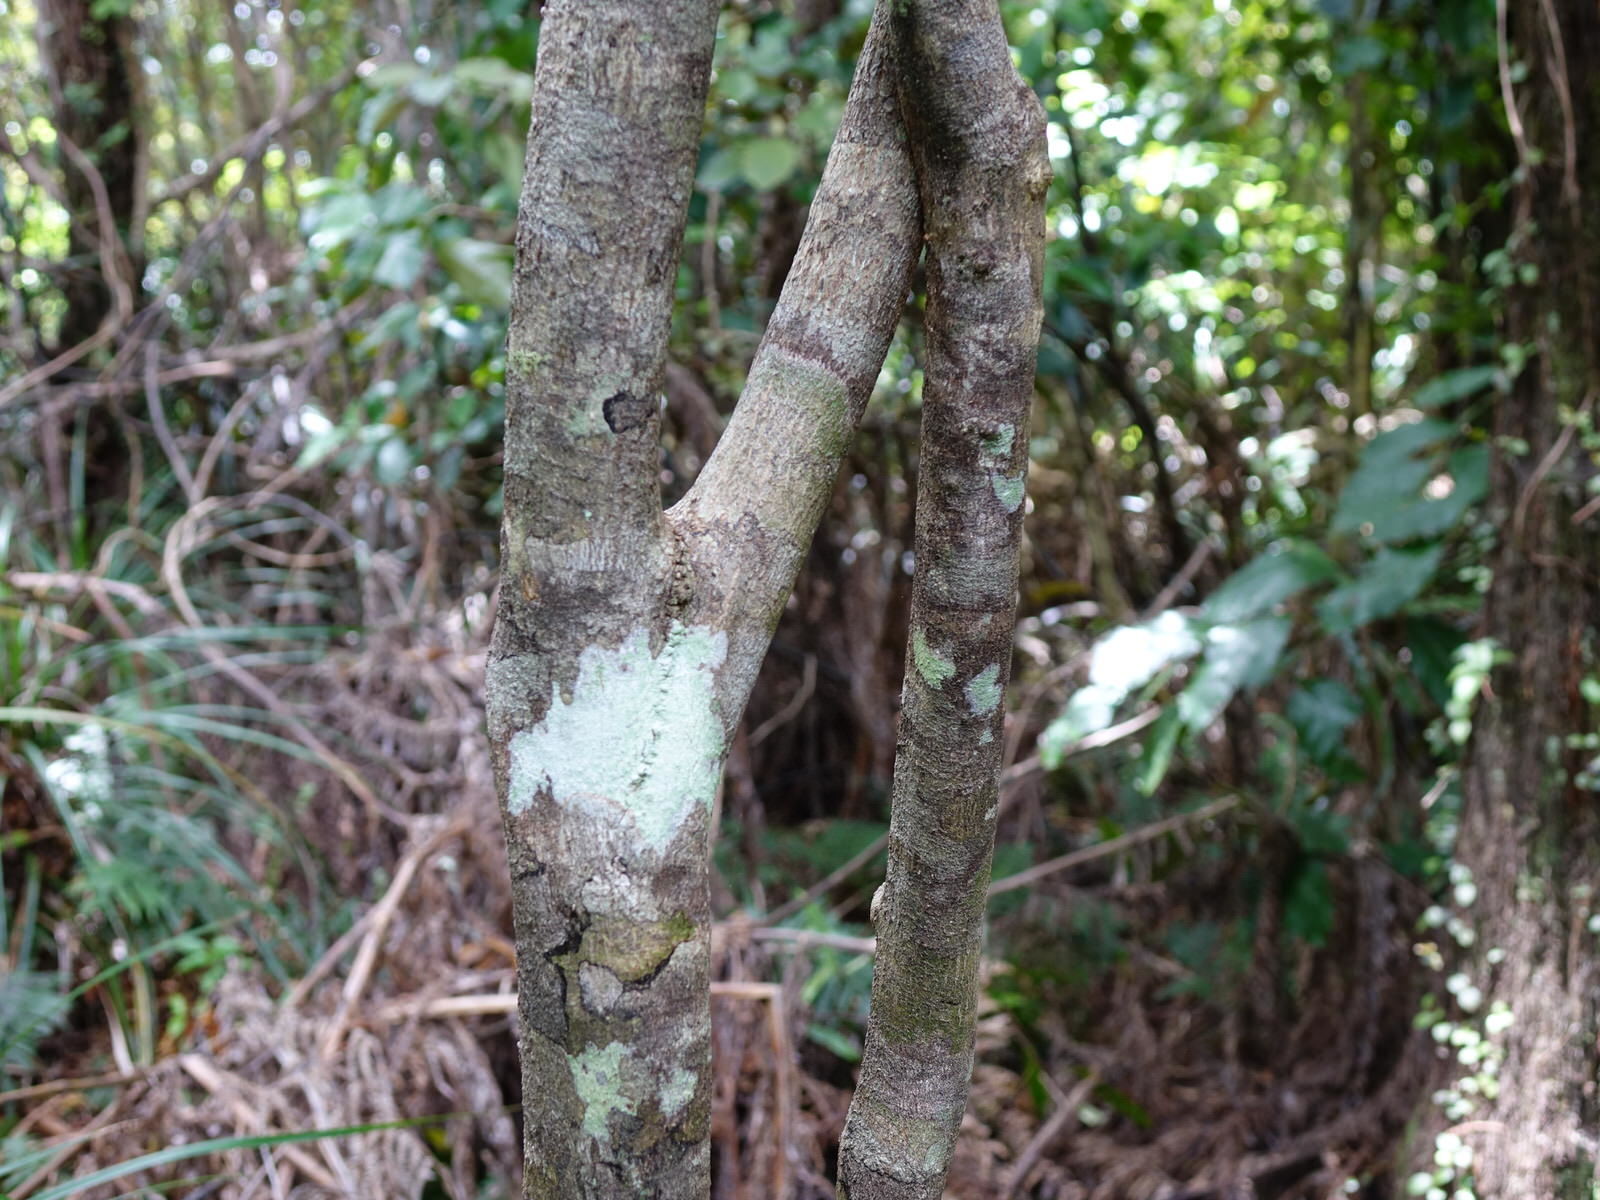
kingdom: Plantae
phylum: Tracheophyta
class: Magnoliopsida
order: Santalales
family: Nanodeaceae
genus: Mida
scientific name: Mida salicifolia
